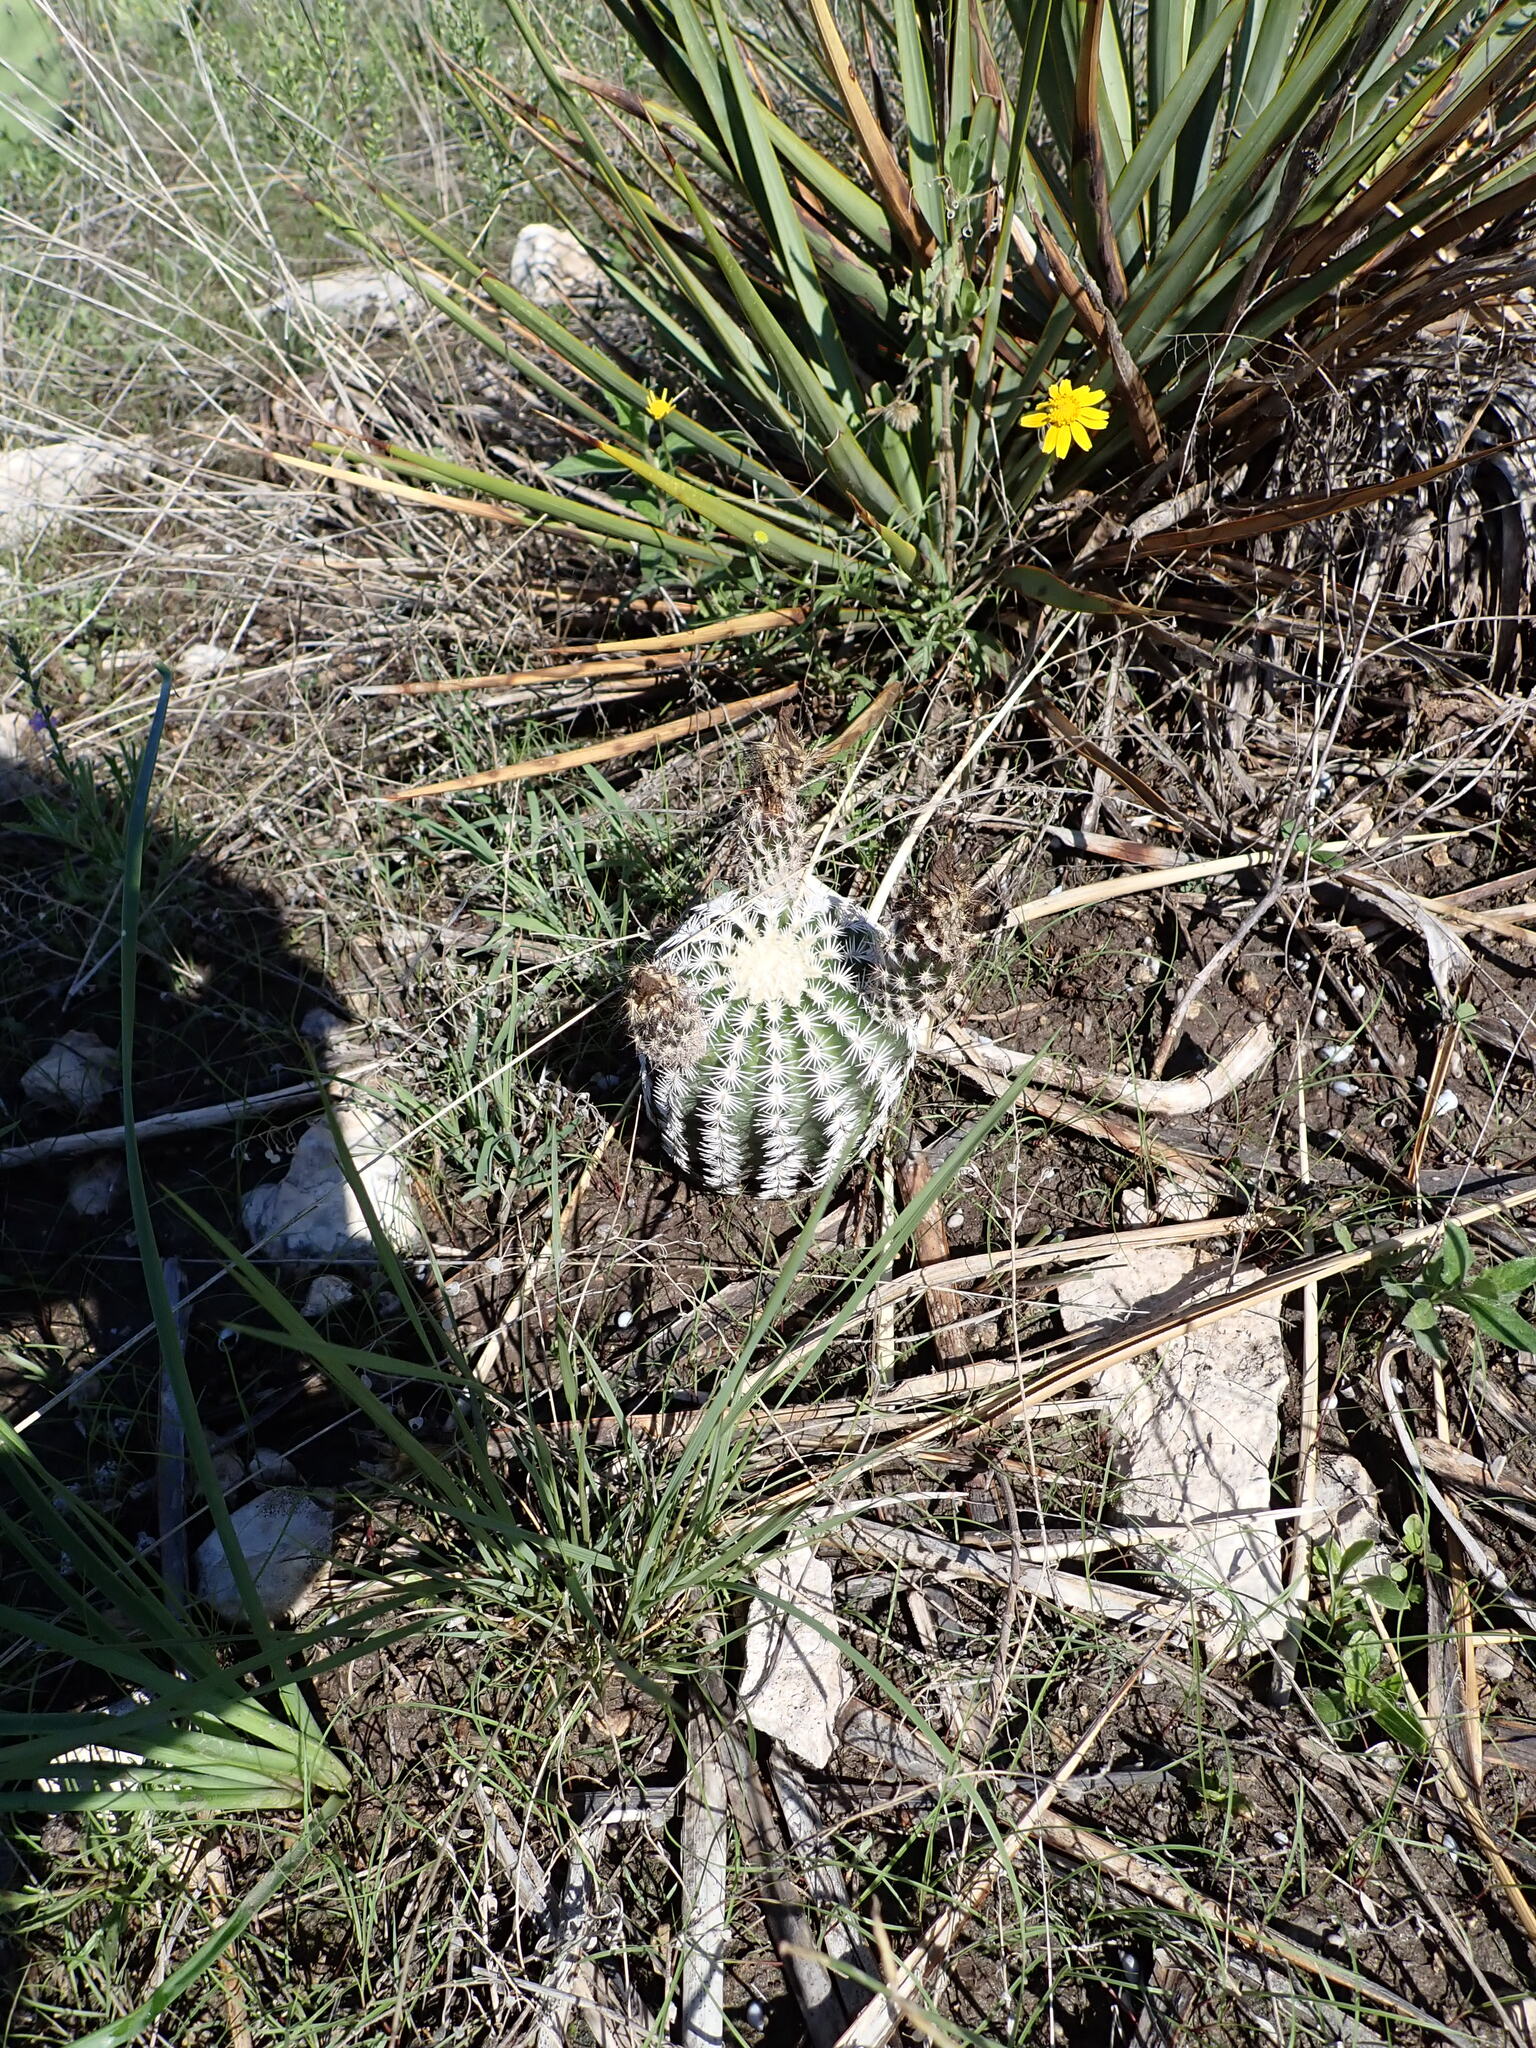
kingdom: Plantae
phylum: Tracheophyta
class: Magnoliopsida
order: Caryophyllales
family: Cactaceae
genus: Echinocereus
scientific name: Echinocereus reichenbachii
